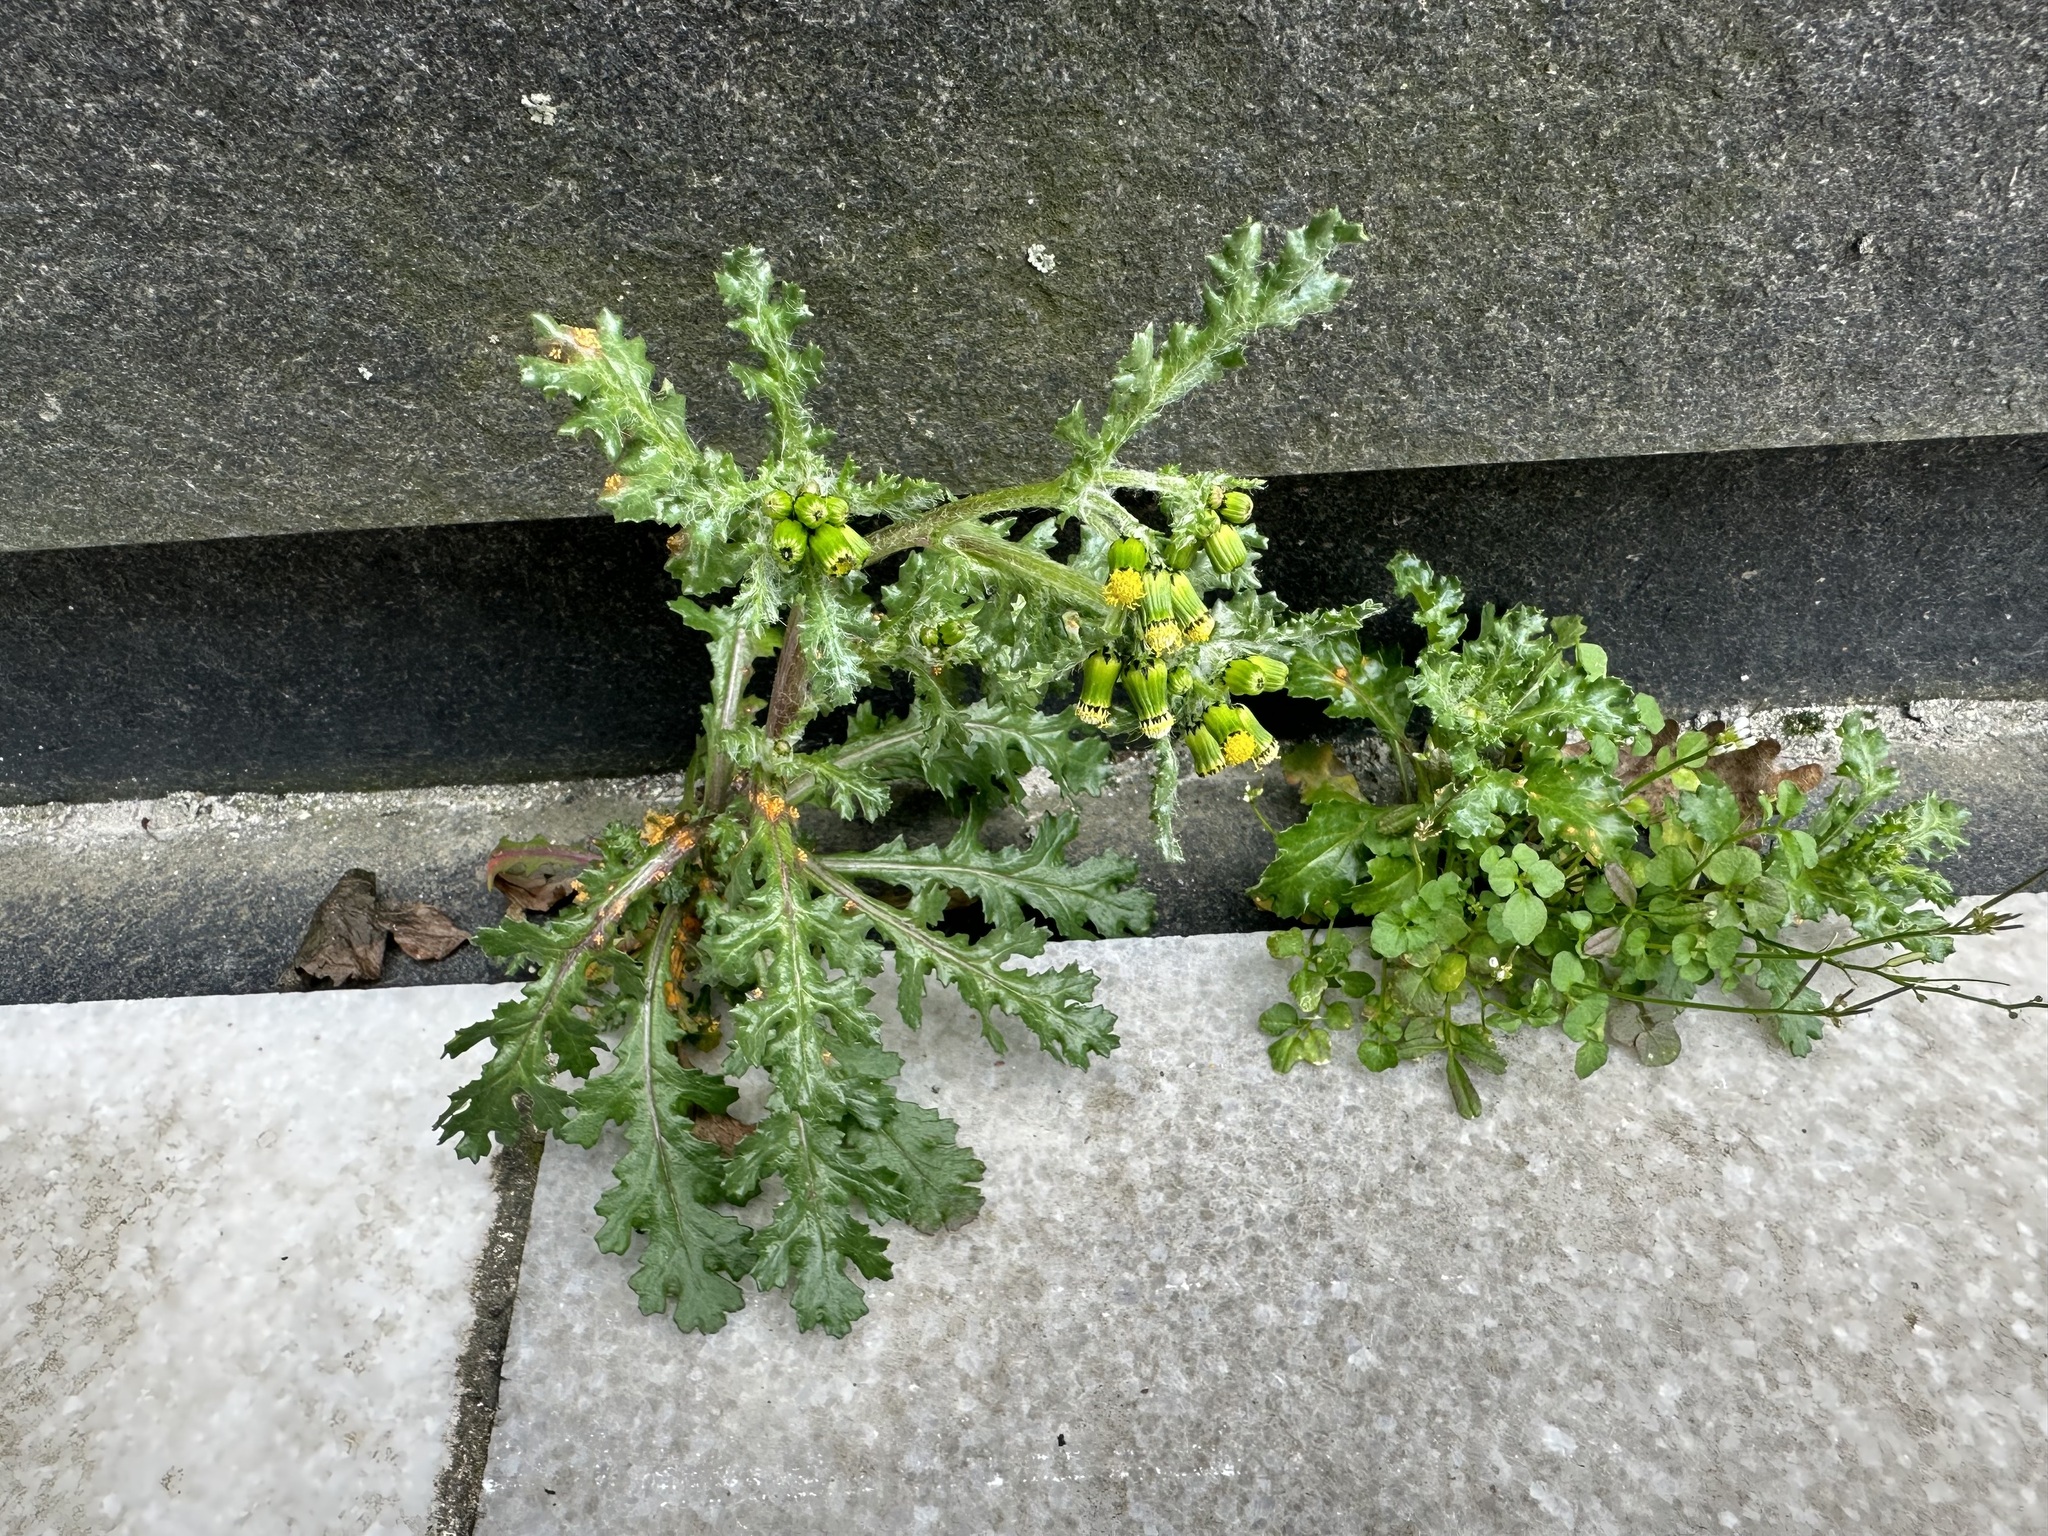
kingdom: Plantae
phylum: Tracheophyta
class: Magnoliopsida
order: Asterales
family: Asteraceae
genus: Senecio
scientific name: Senecio vulgaris
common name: Old-man-in-the-spring
